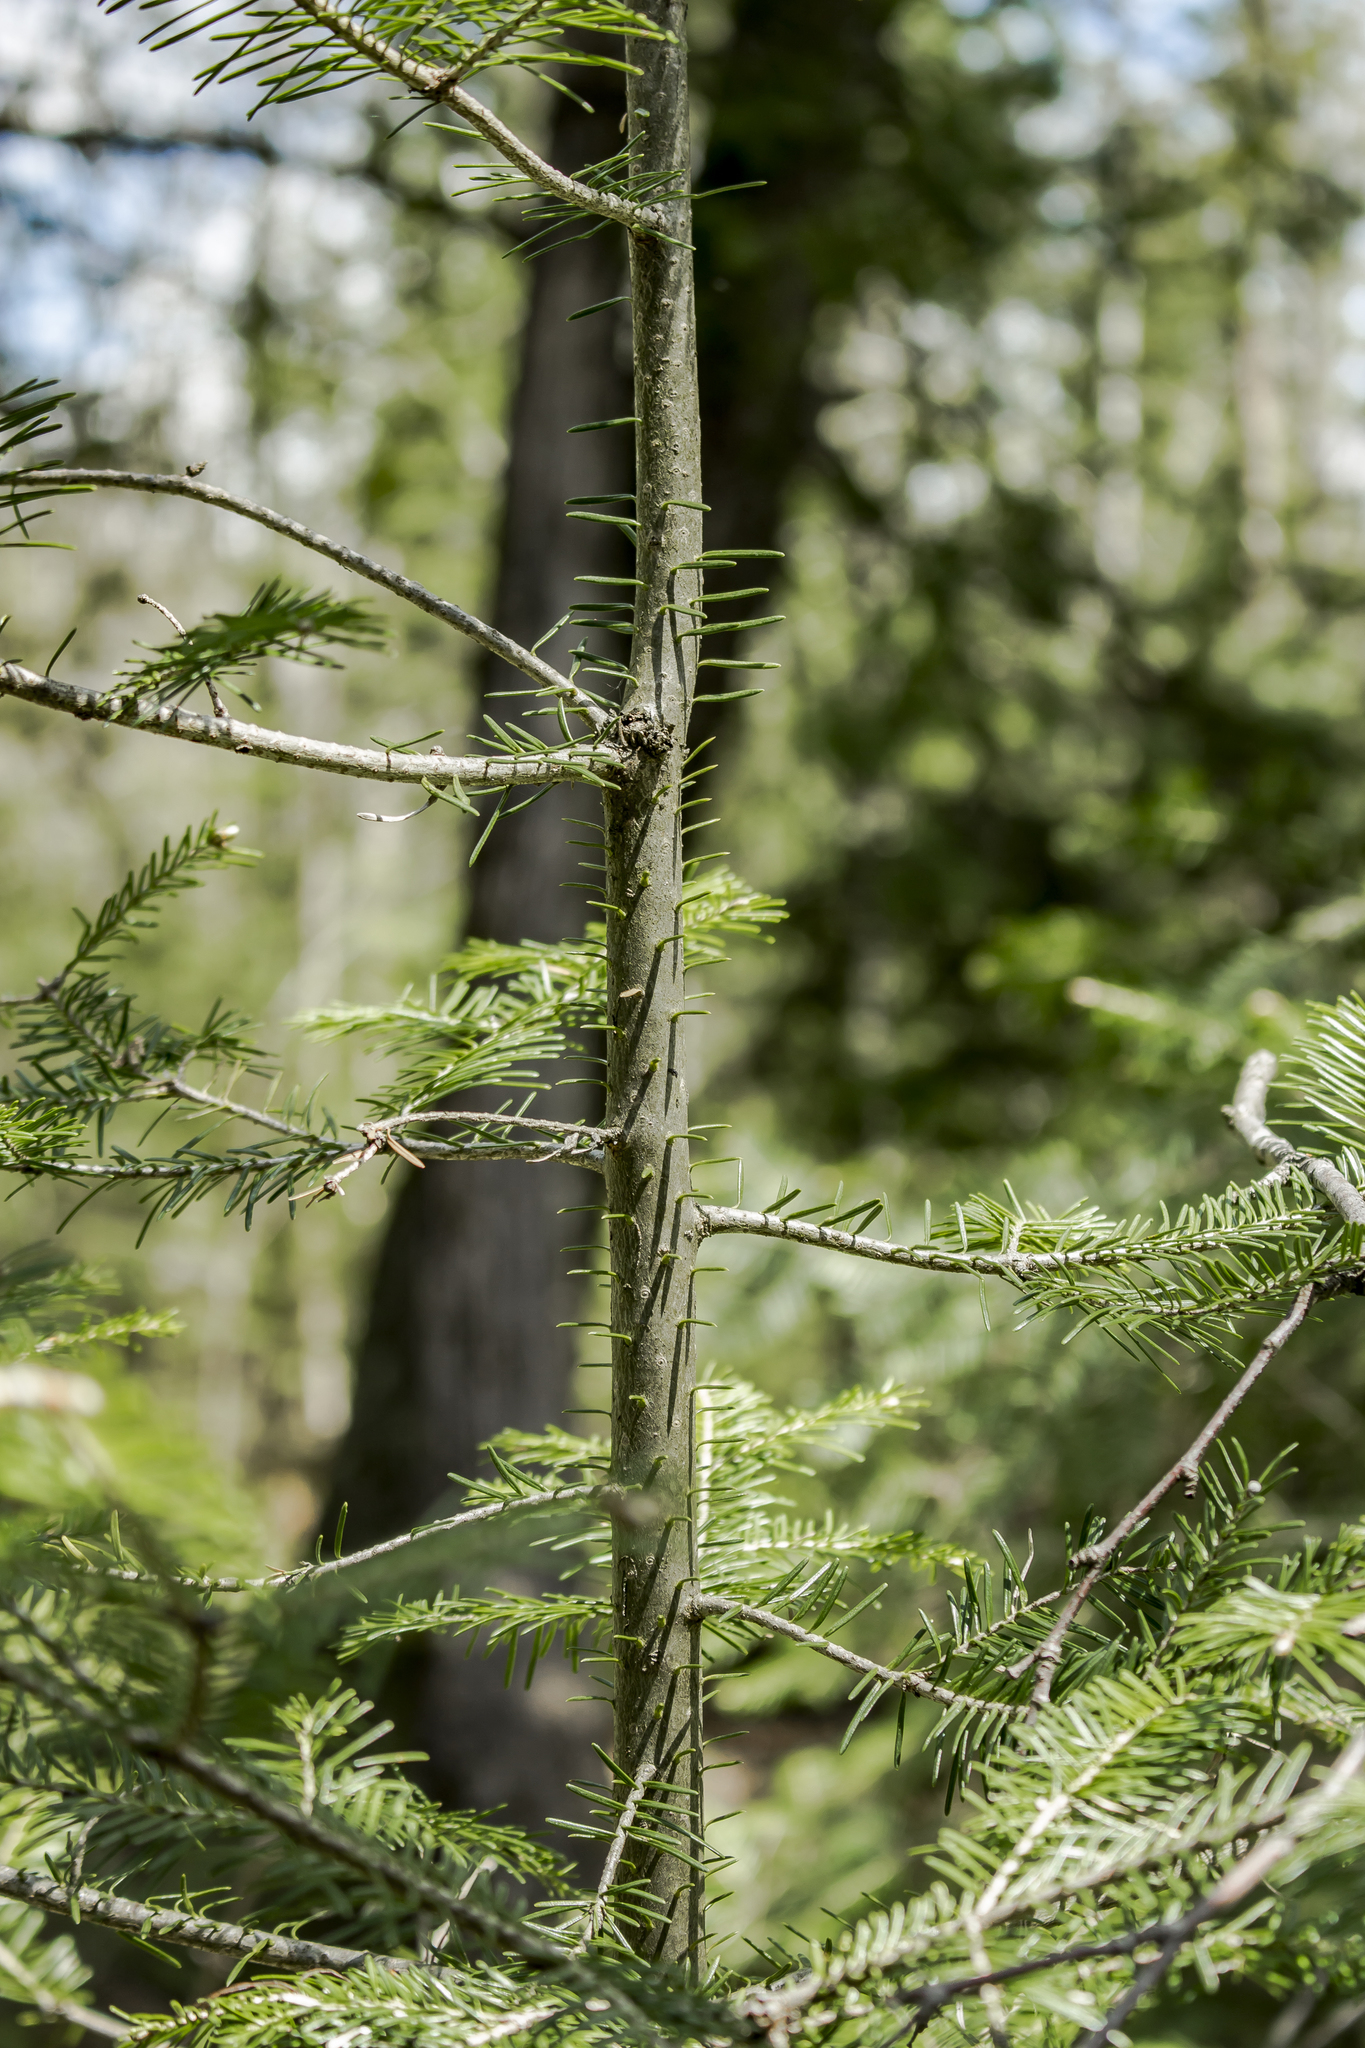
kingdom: Plantae
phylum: Tracheophyta
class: Pinopsida
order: Pinales
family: Pinaceae
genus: Abies
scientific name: Abies balsamea
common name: Balsam fir
